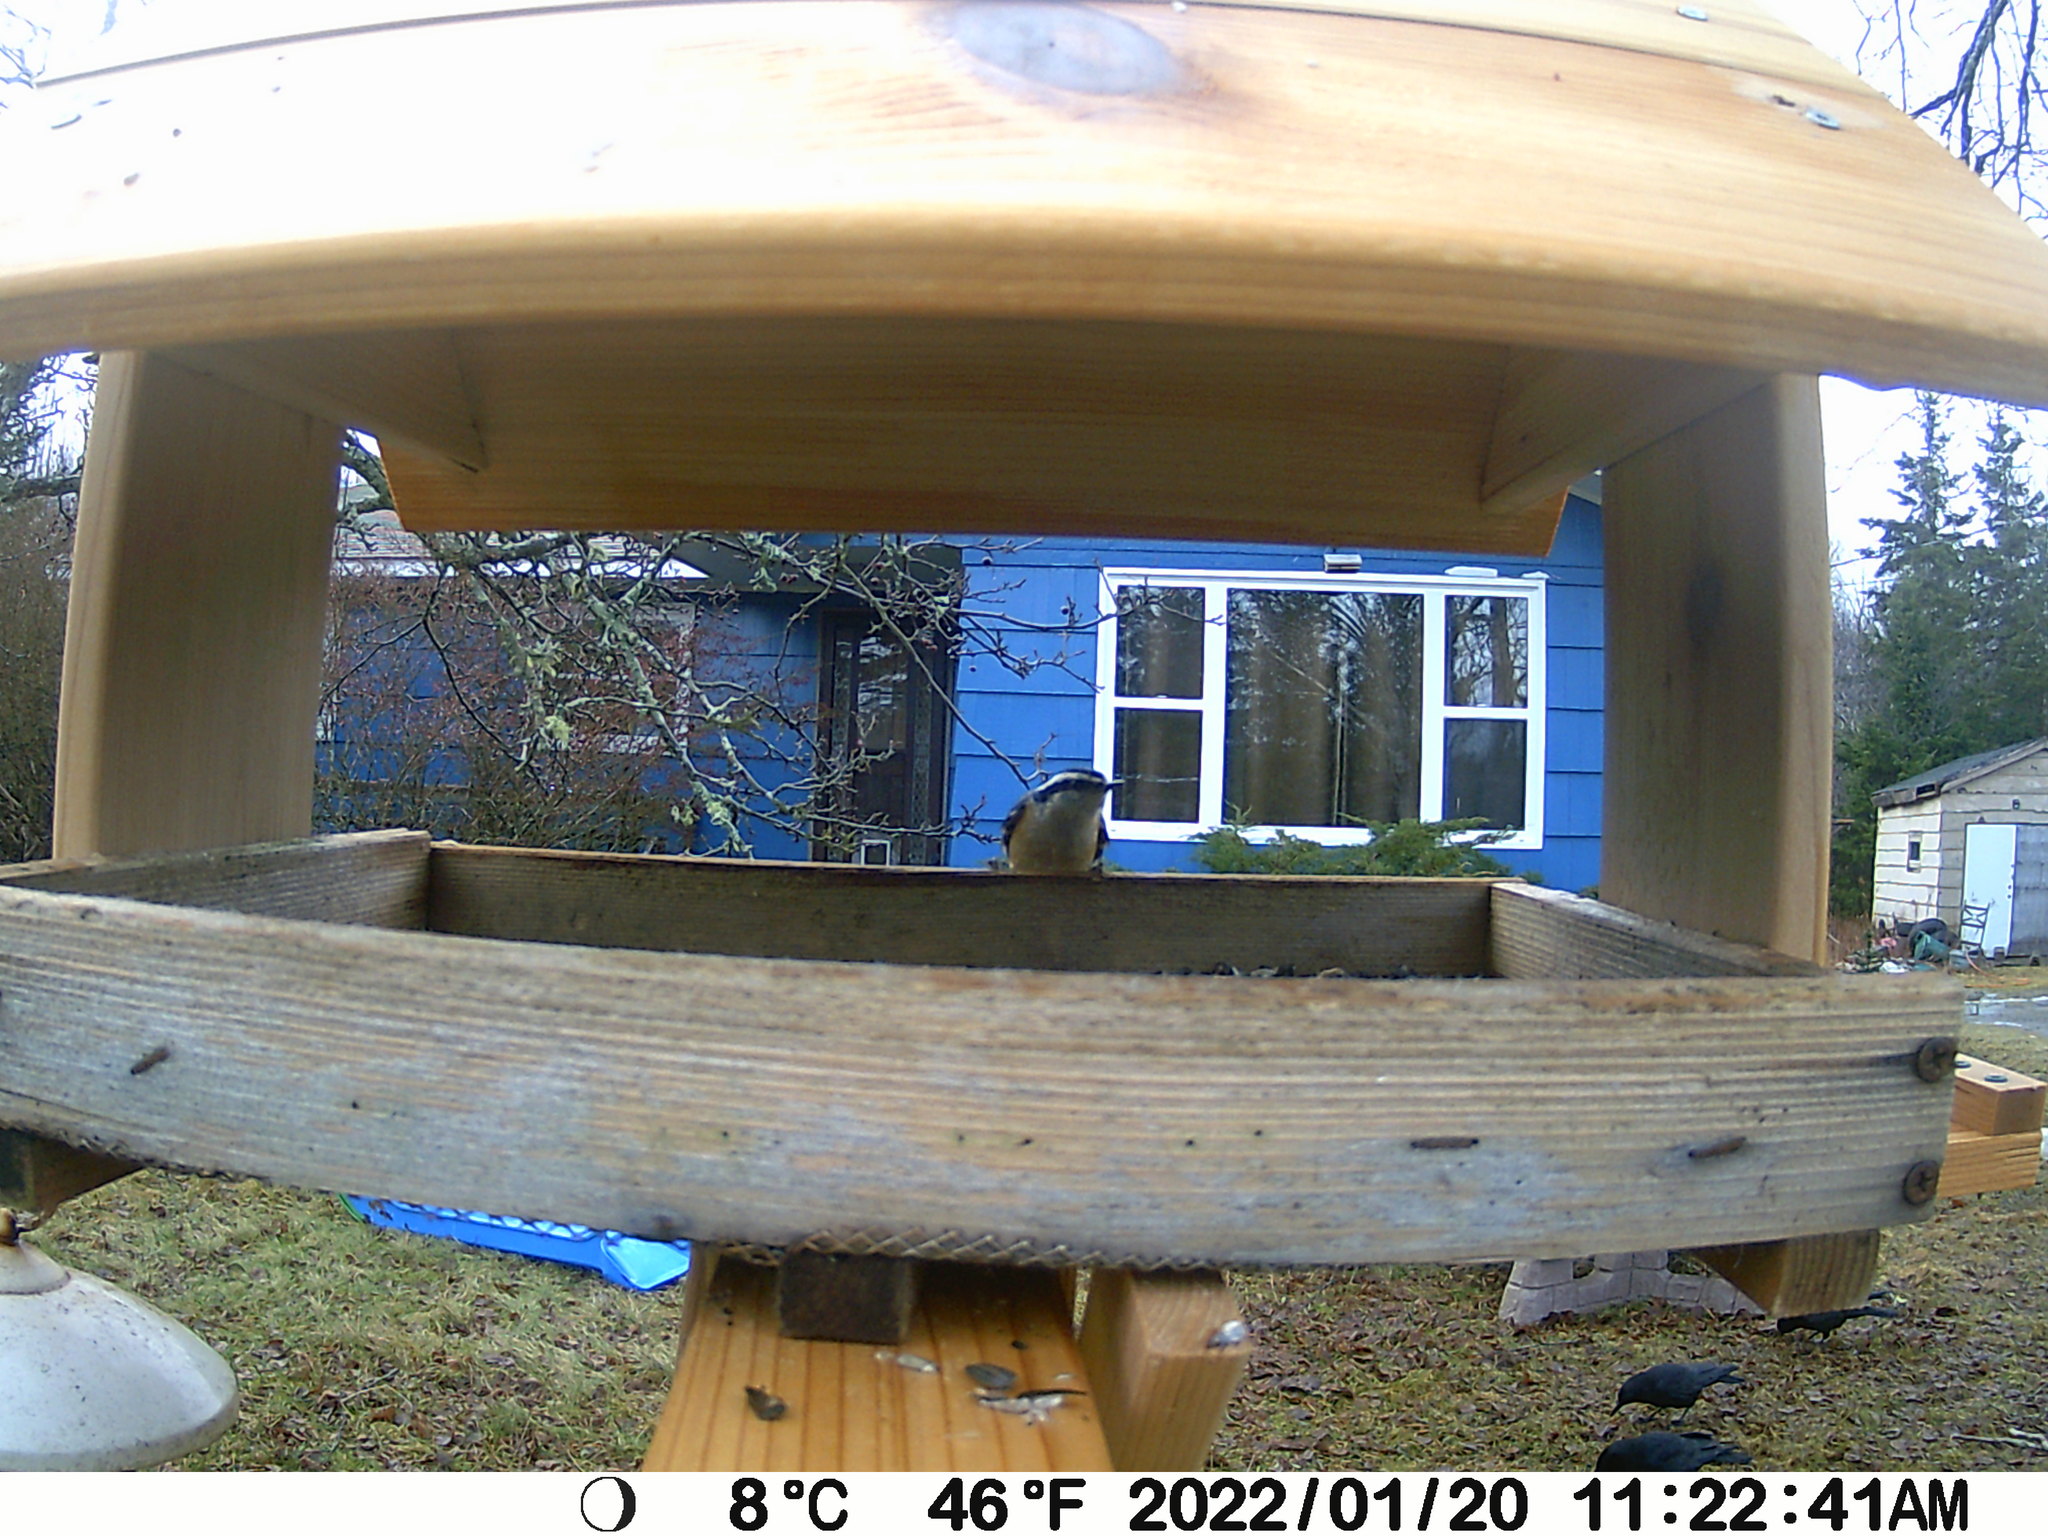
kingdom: Animalia
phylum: Chordata
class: Aves
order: Passeriformes
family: Sittidae
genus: Sitta
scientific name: Sitta canadensis
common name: Red-breasted nuthatch
